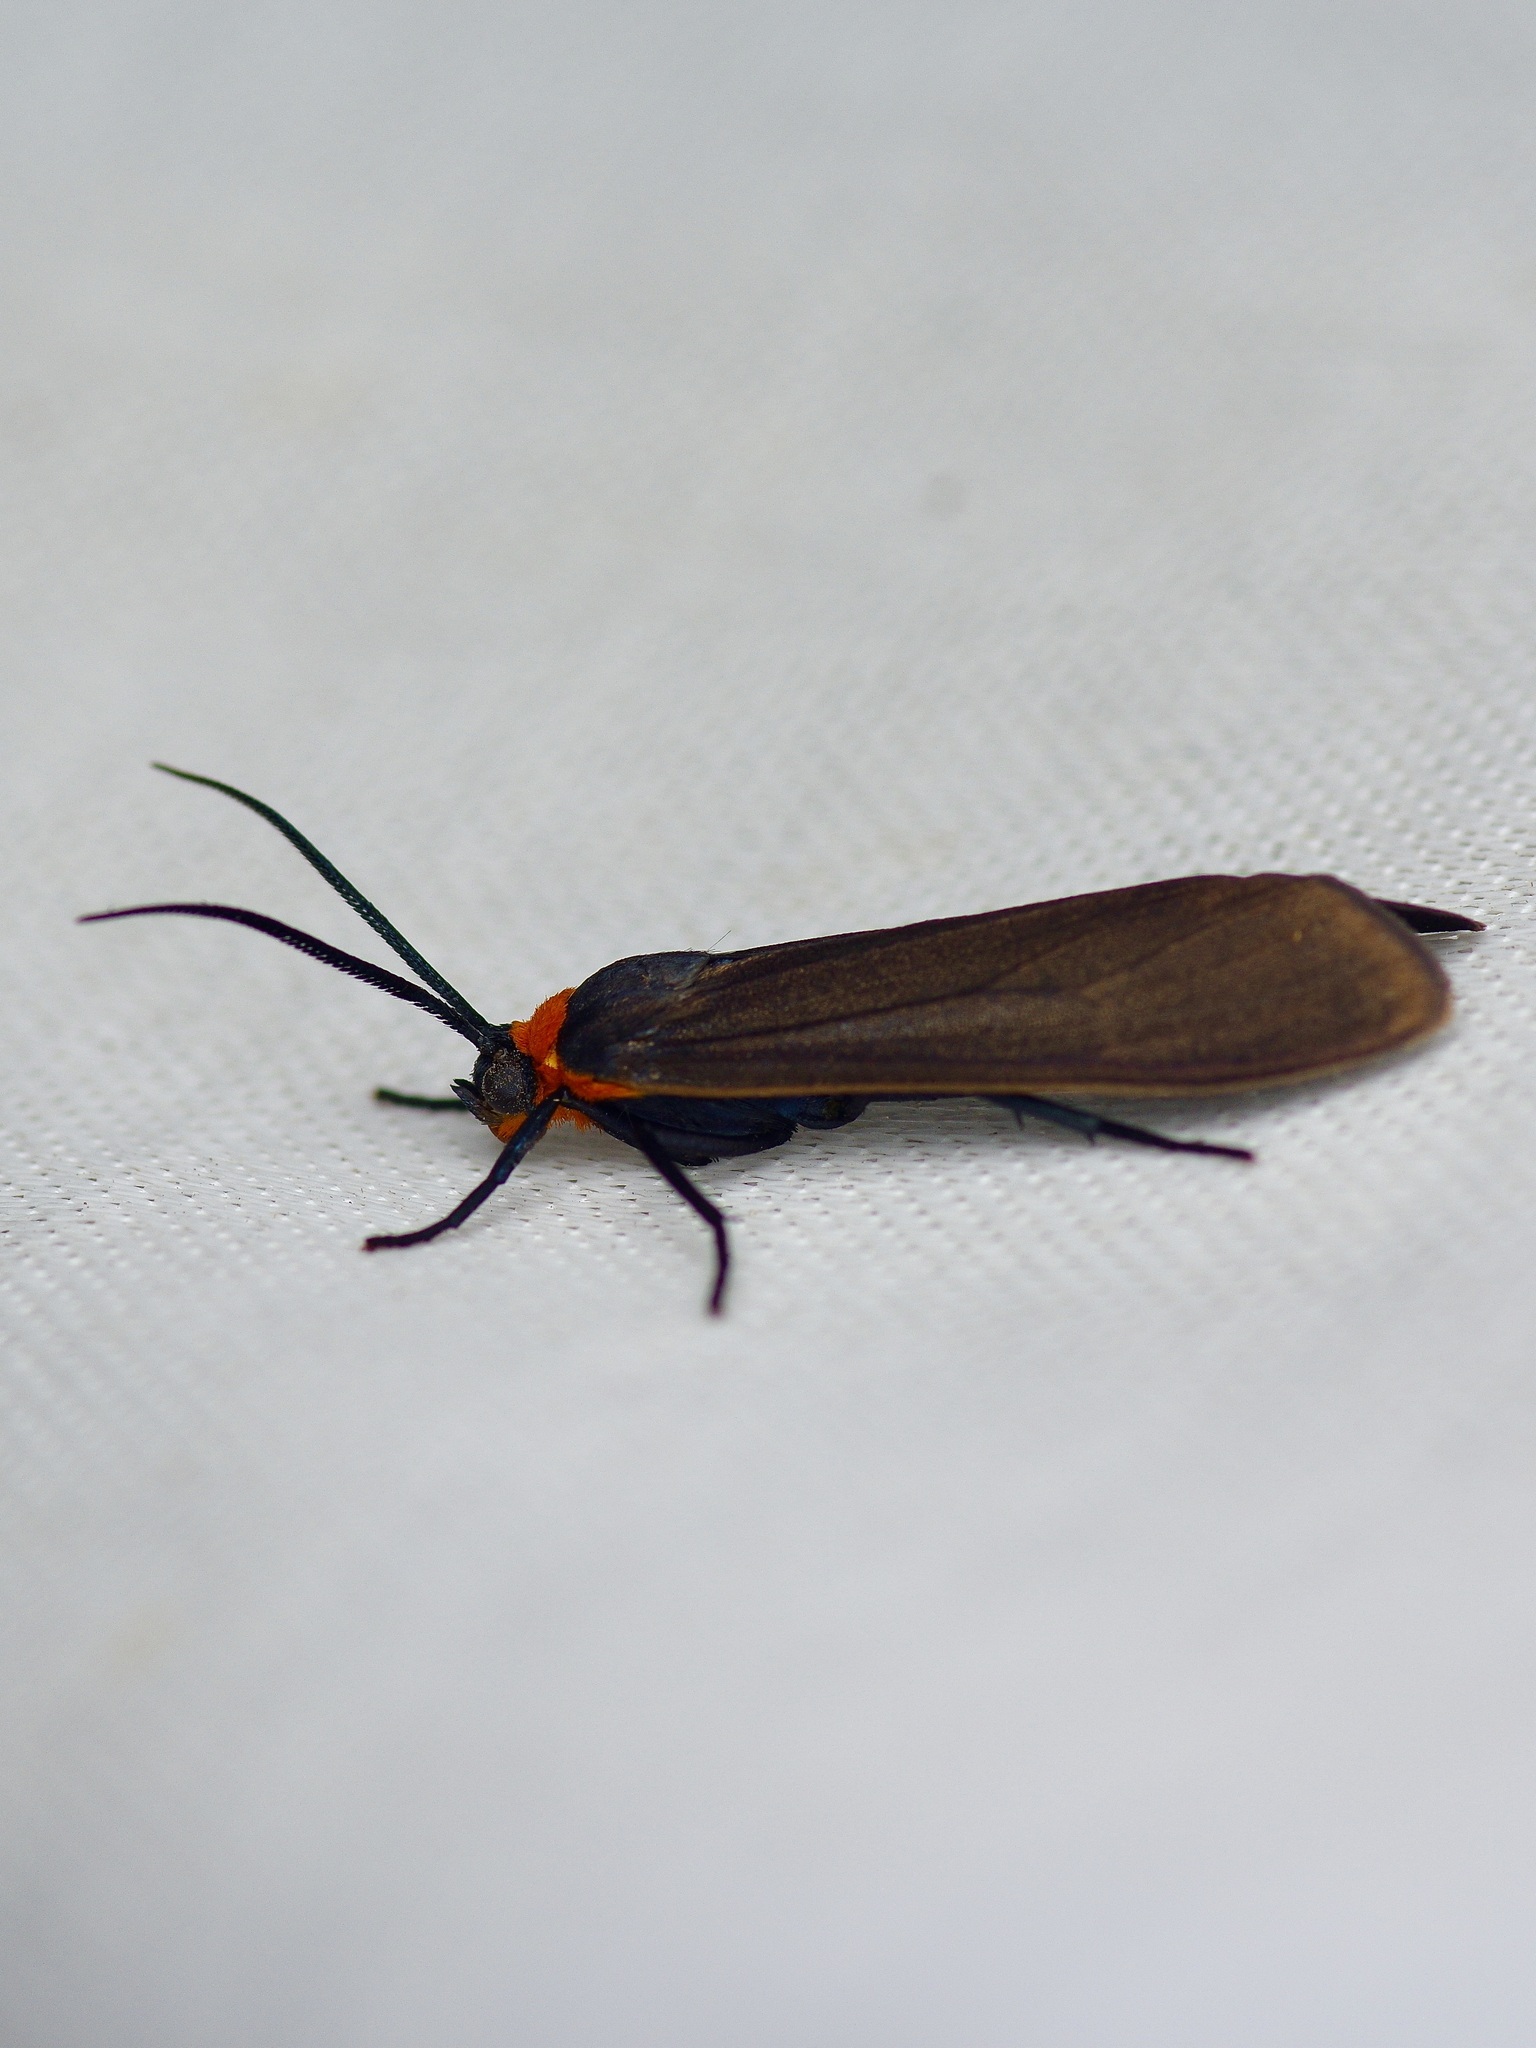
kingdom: Animalia
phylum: Arthropoda
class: Insecta
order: Lepidoptera
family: Erebidae
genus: Cisseps
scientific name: Cisseps fulvicollis
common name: Yellow-collared scape moth
